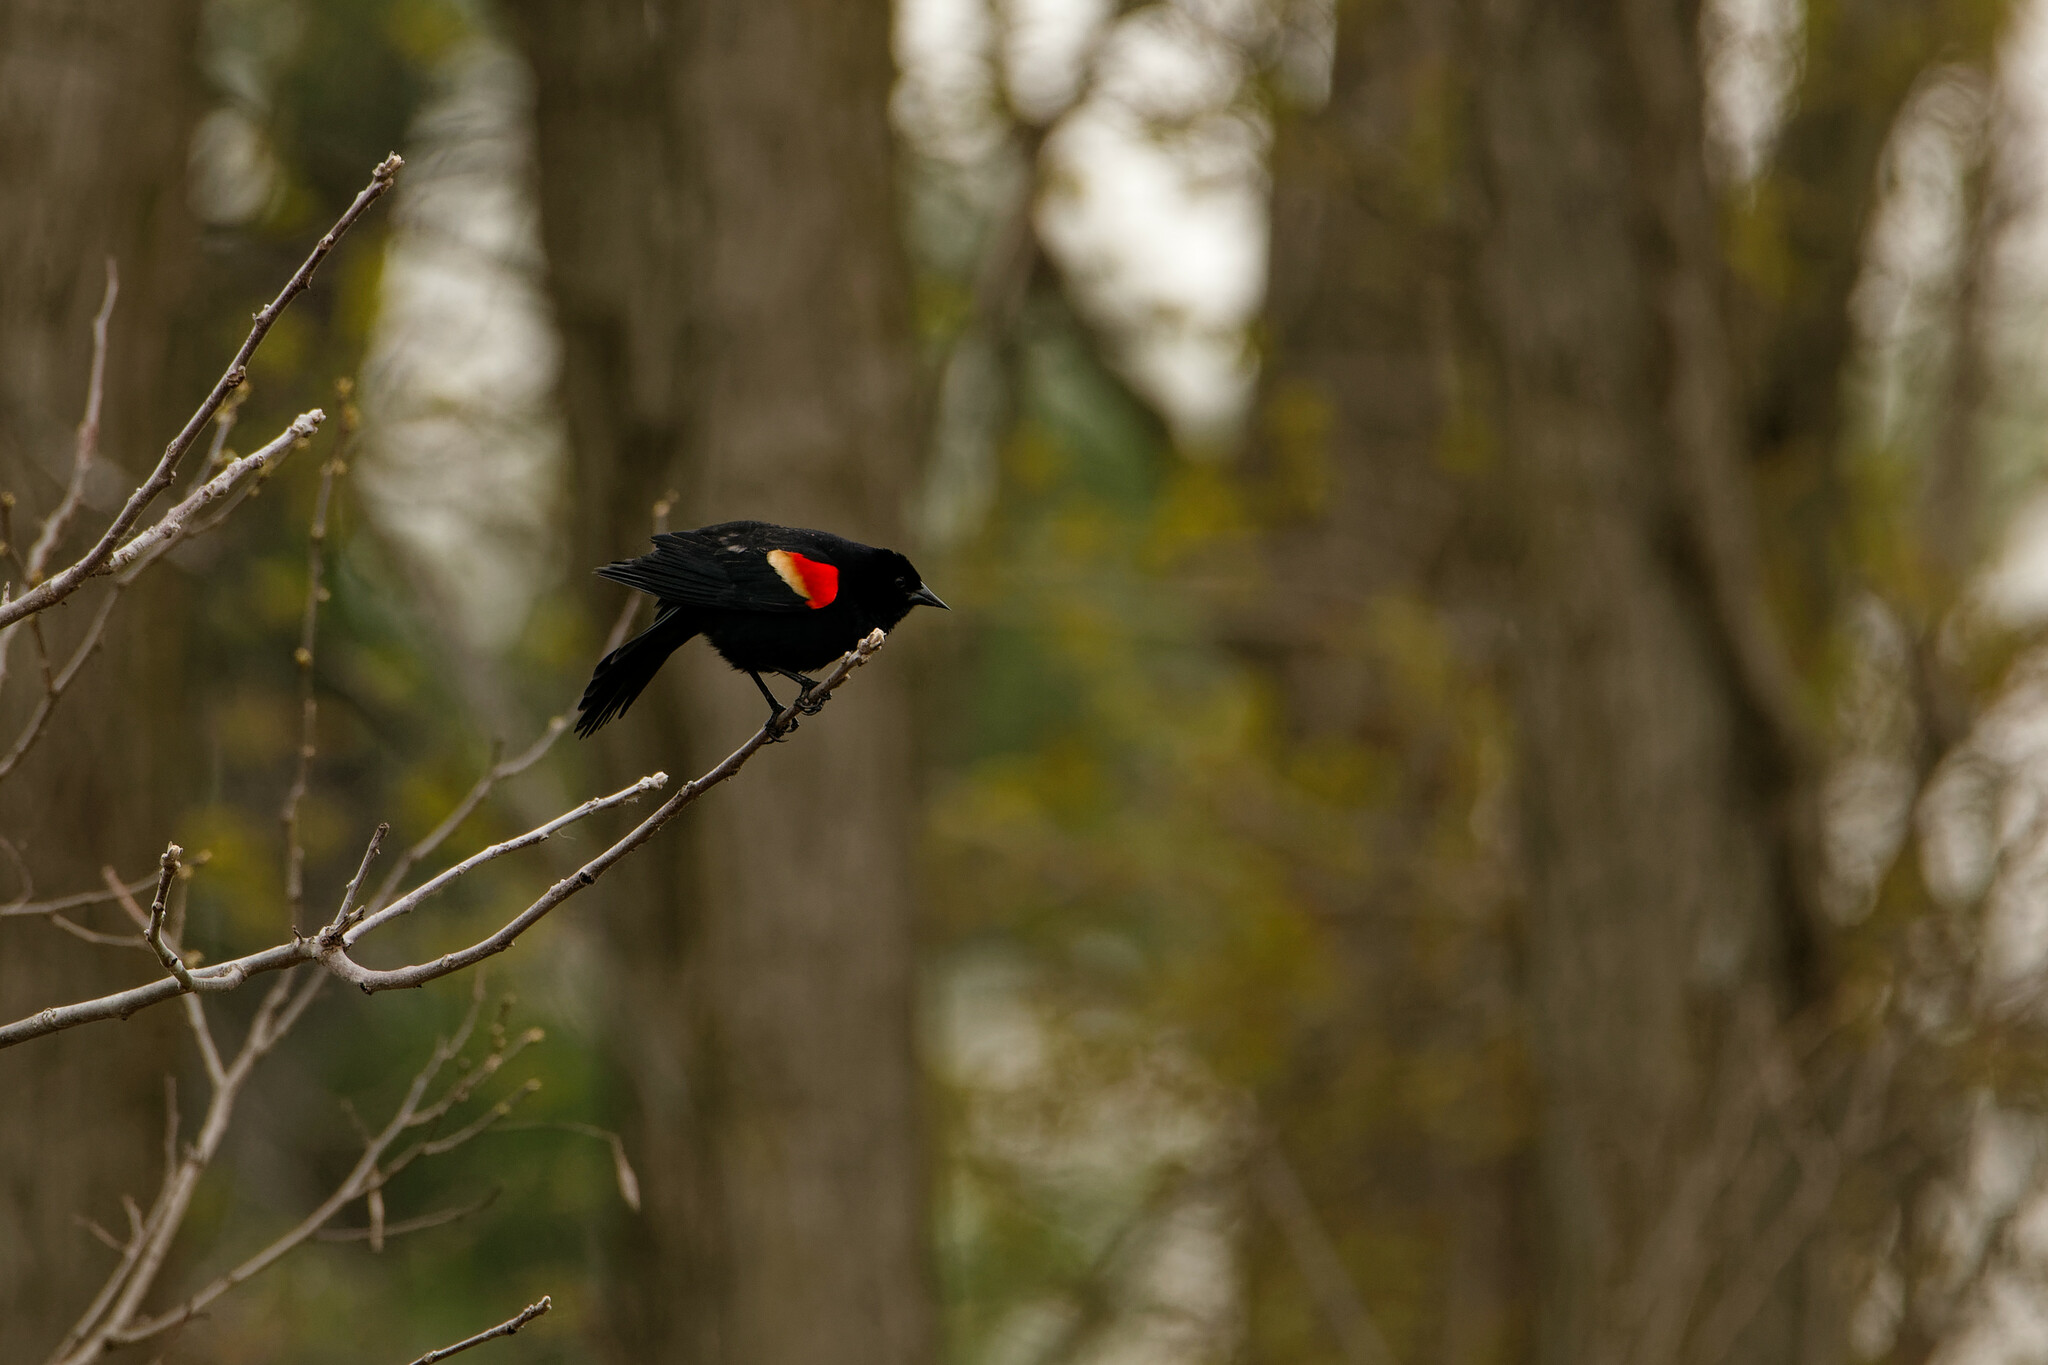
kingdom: Animalia
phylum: Chordata
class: Aves
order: Passeriformes
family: Icteridae
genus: Agelaius
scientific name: Agelaius phoeniceus
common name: Red-winged blackbird
